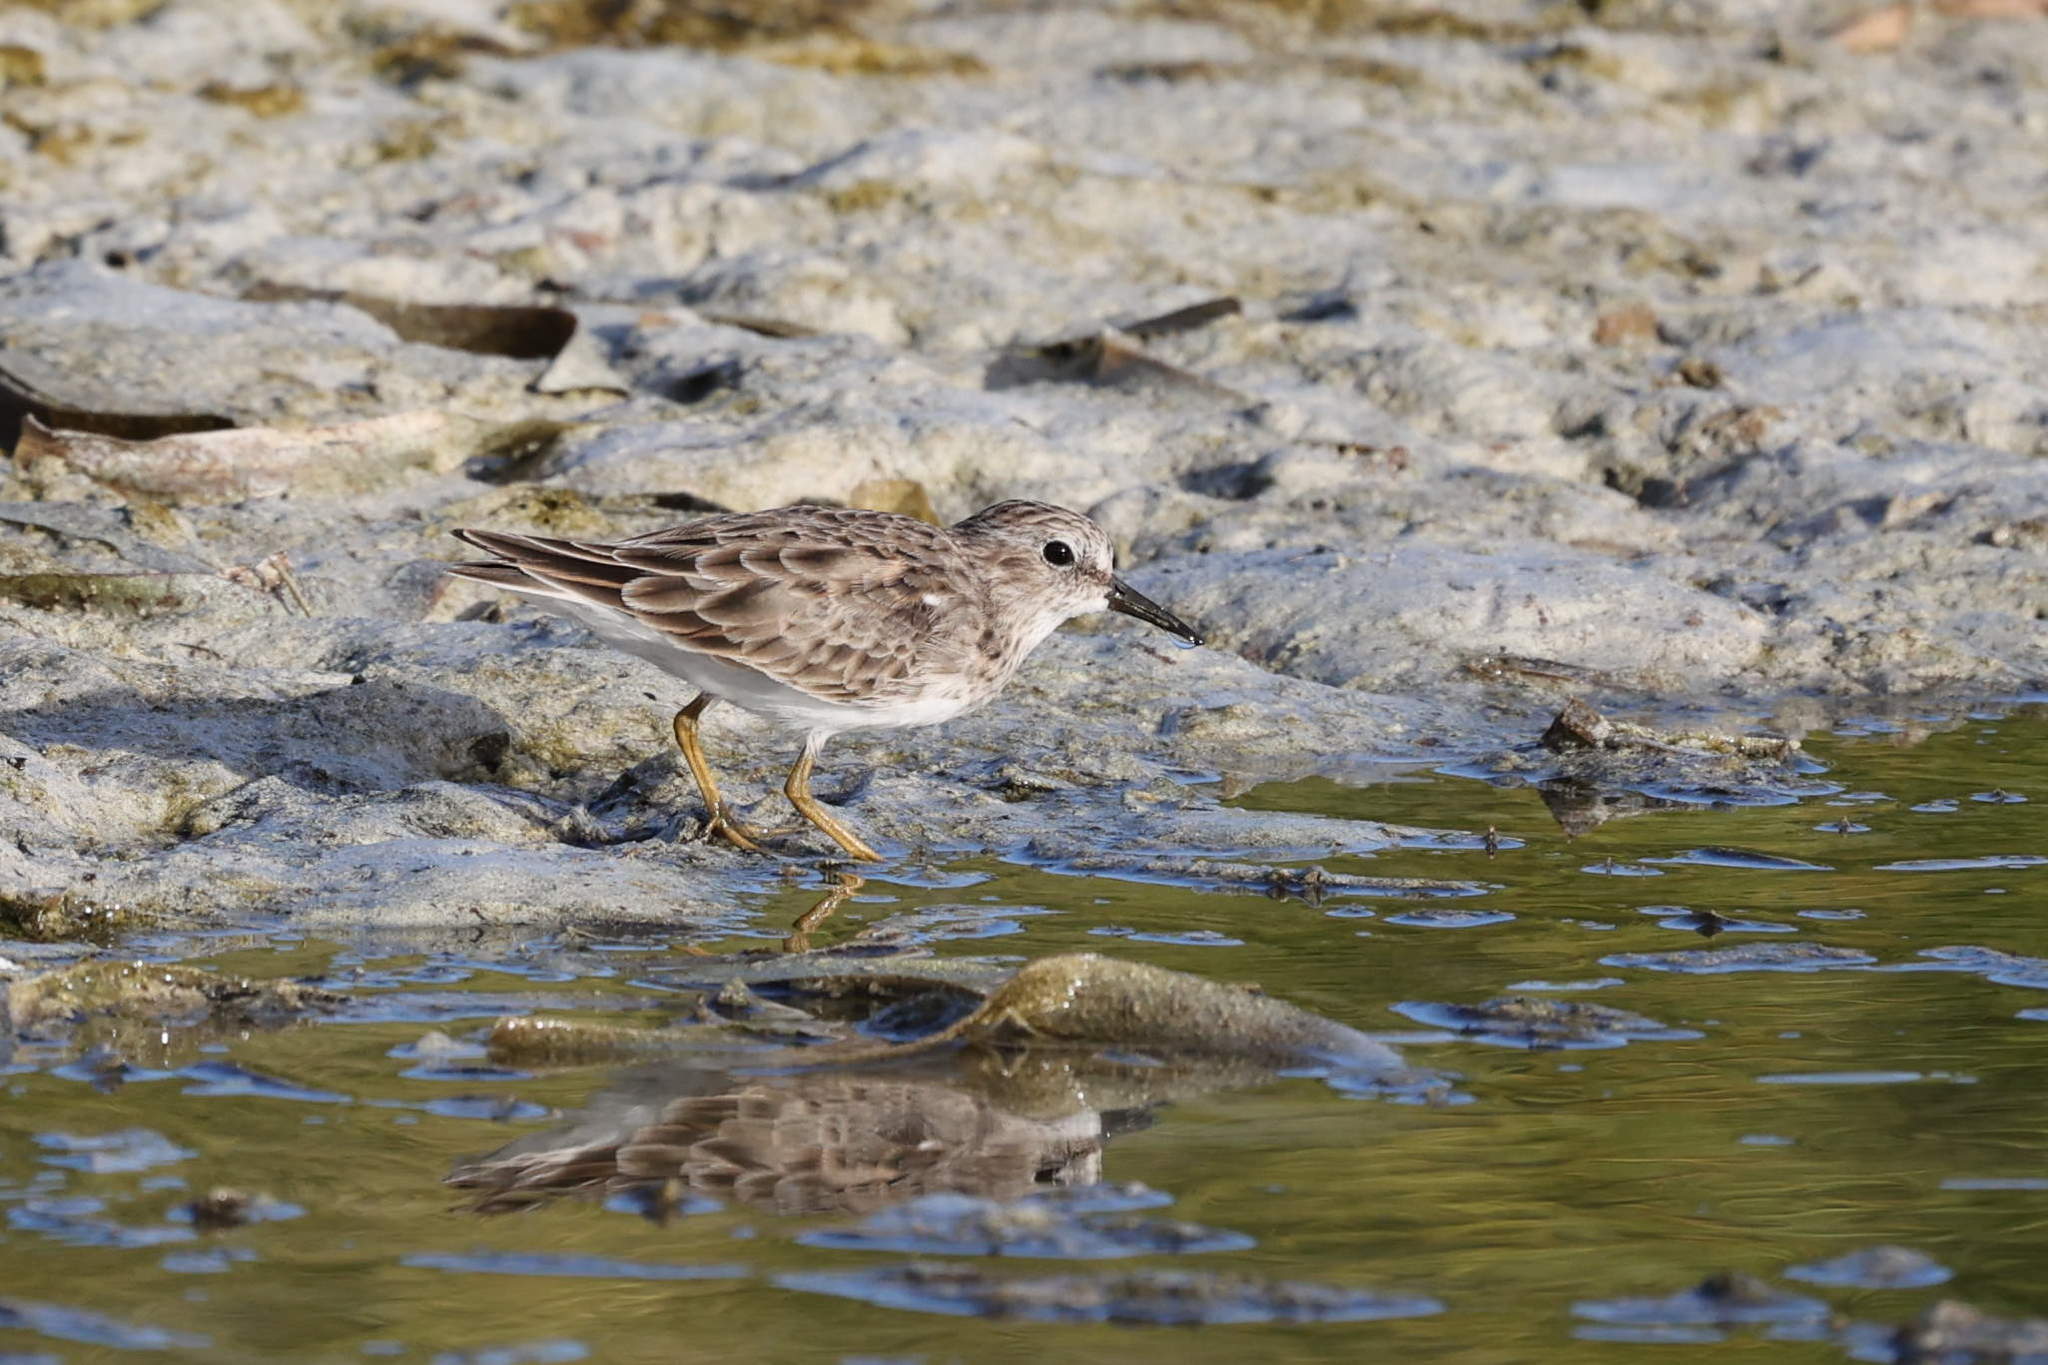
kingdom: Animalia
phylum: Chordata
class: Aves
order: Charadriiformes
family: Scolopacidae
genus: Calidris
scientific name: Calidris minutilla
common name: Least sandpiper
